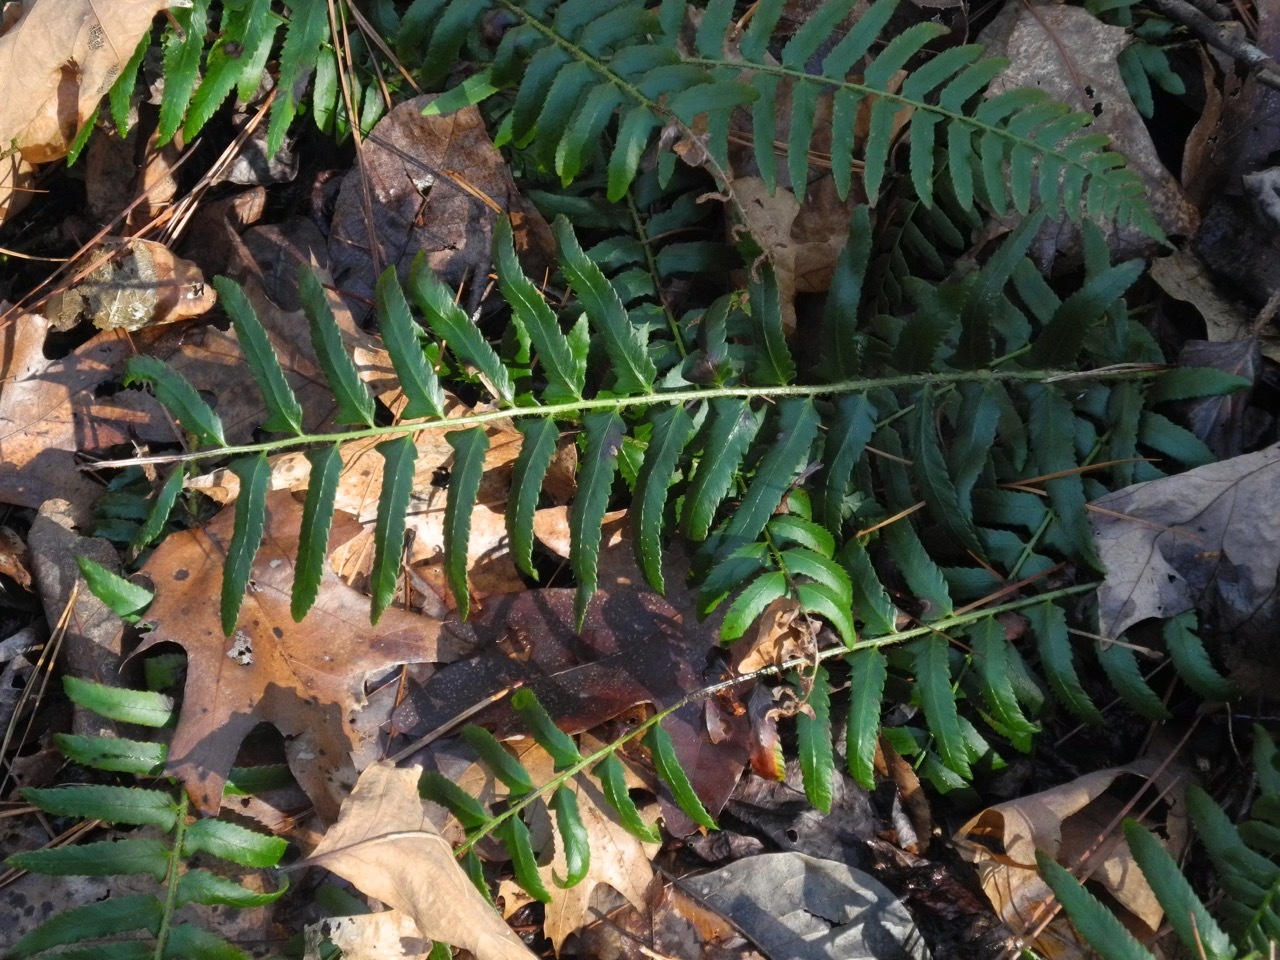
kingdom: Plantae
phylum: Tracheophyta
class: Polypodiopsida
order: Polypodiales
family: Dryopteridaceae
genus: Polystichum
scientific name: Polystichum acrostichoides
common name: Christmas fern
